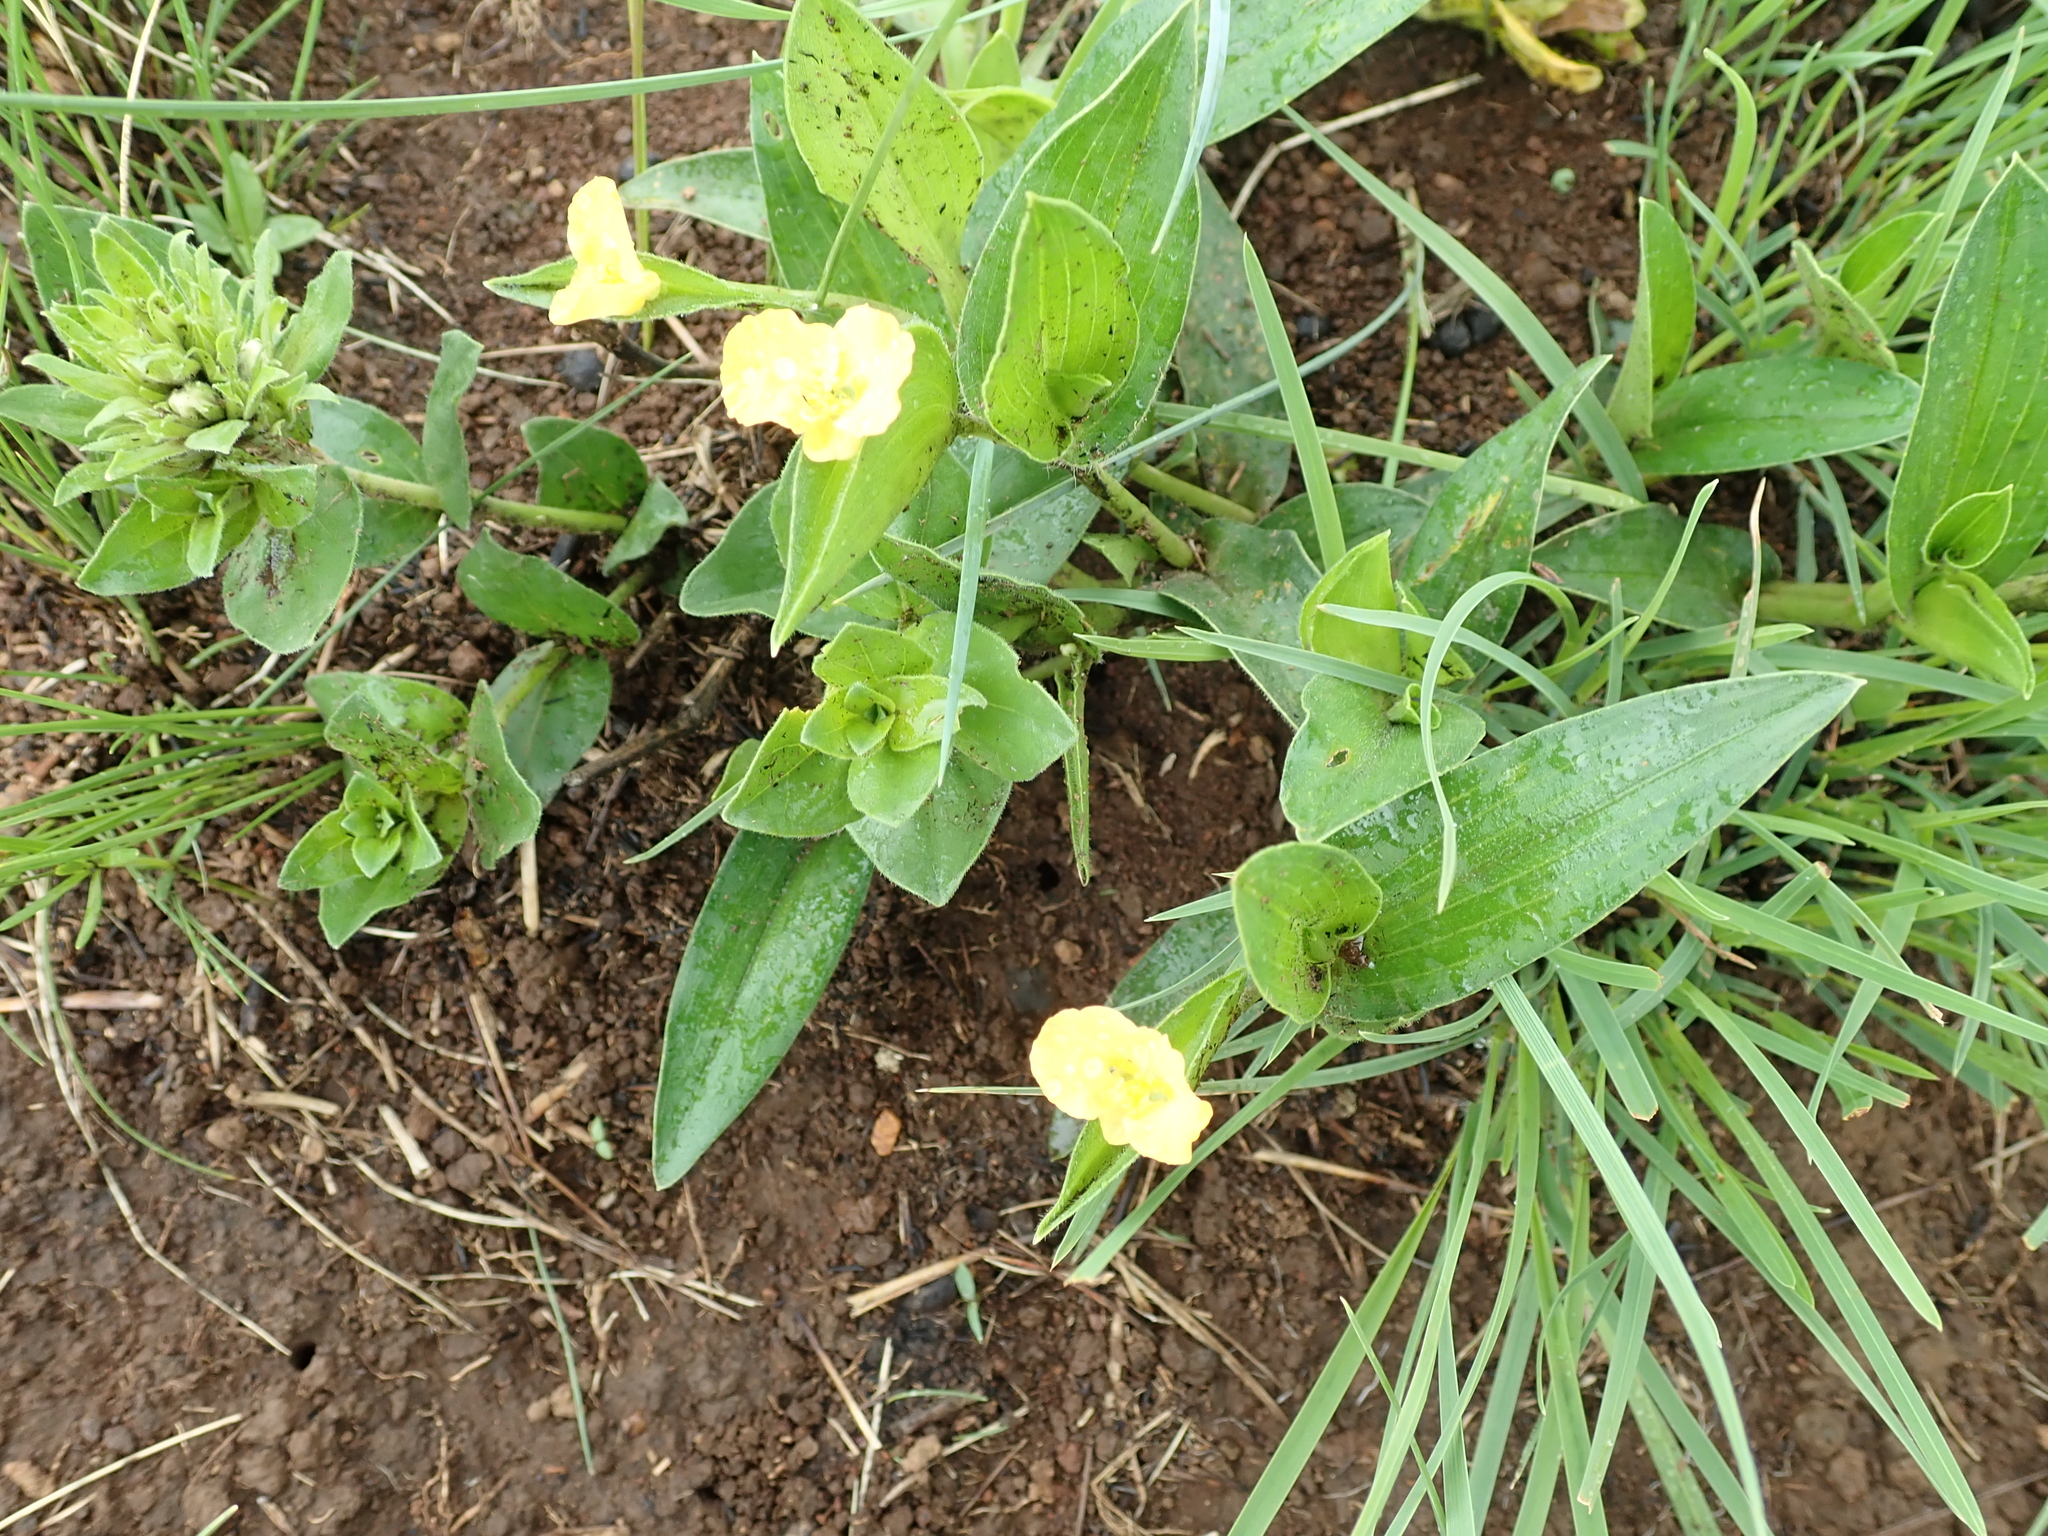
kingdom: Plantae
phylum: Tracheophyta
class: Liliopsida
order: Commelinales
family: Commelinaceae
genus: Commelina
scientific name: Commelina africana
